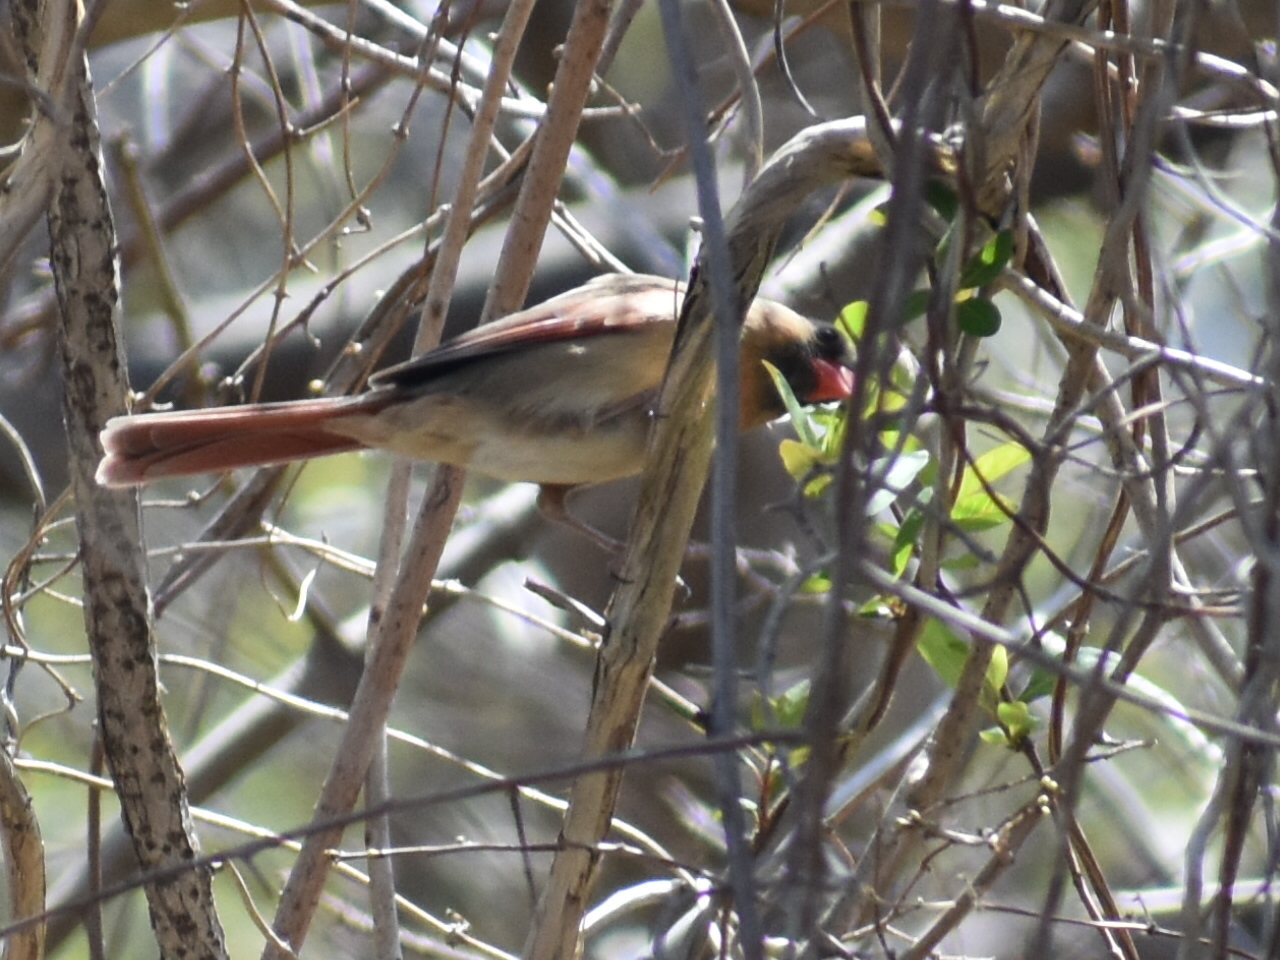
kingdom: Animalia
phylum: Chordata
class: Aves
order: Passeriformes
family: Cardinalidae
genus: Cardinalis
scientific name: Cardinalis cardinalis
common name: Northern cardinal
